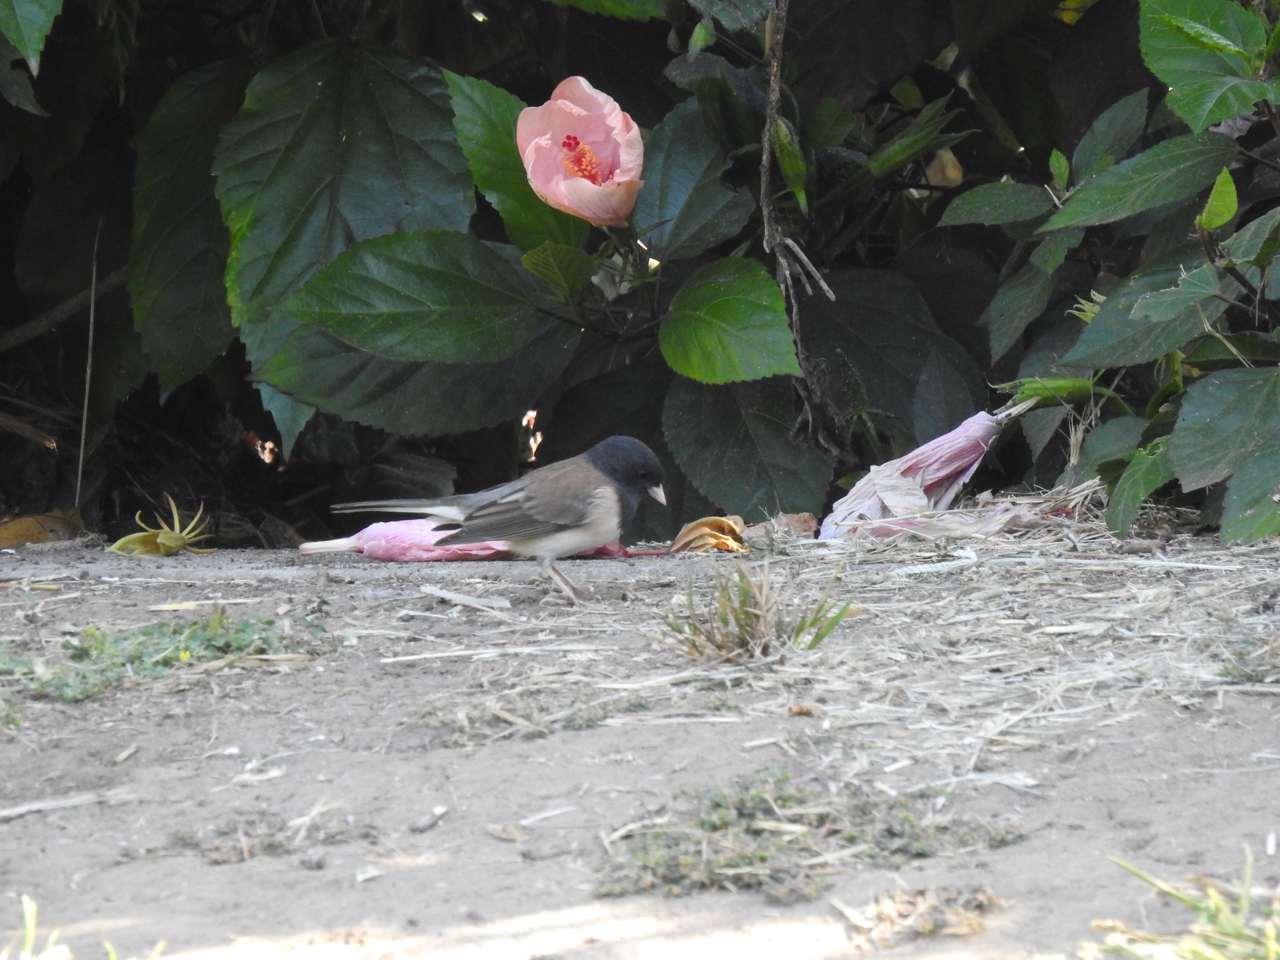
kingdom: Animalia
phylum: Chordata
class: Aves
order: Passeriformes
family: Passerellidae
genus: Junco
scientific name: Junco hyemalis
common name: Dark-eyed junco
